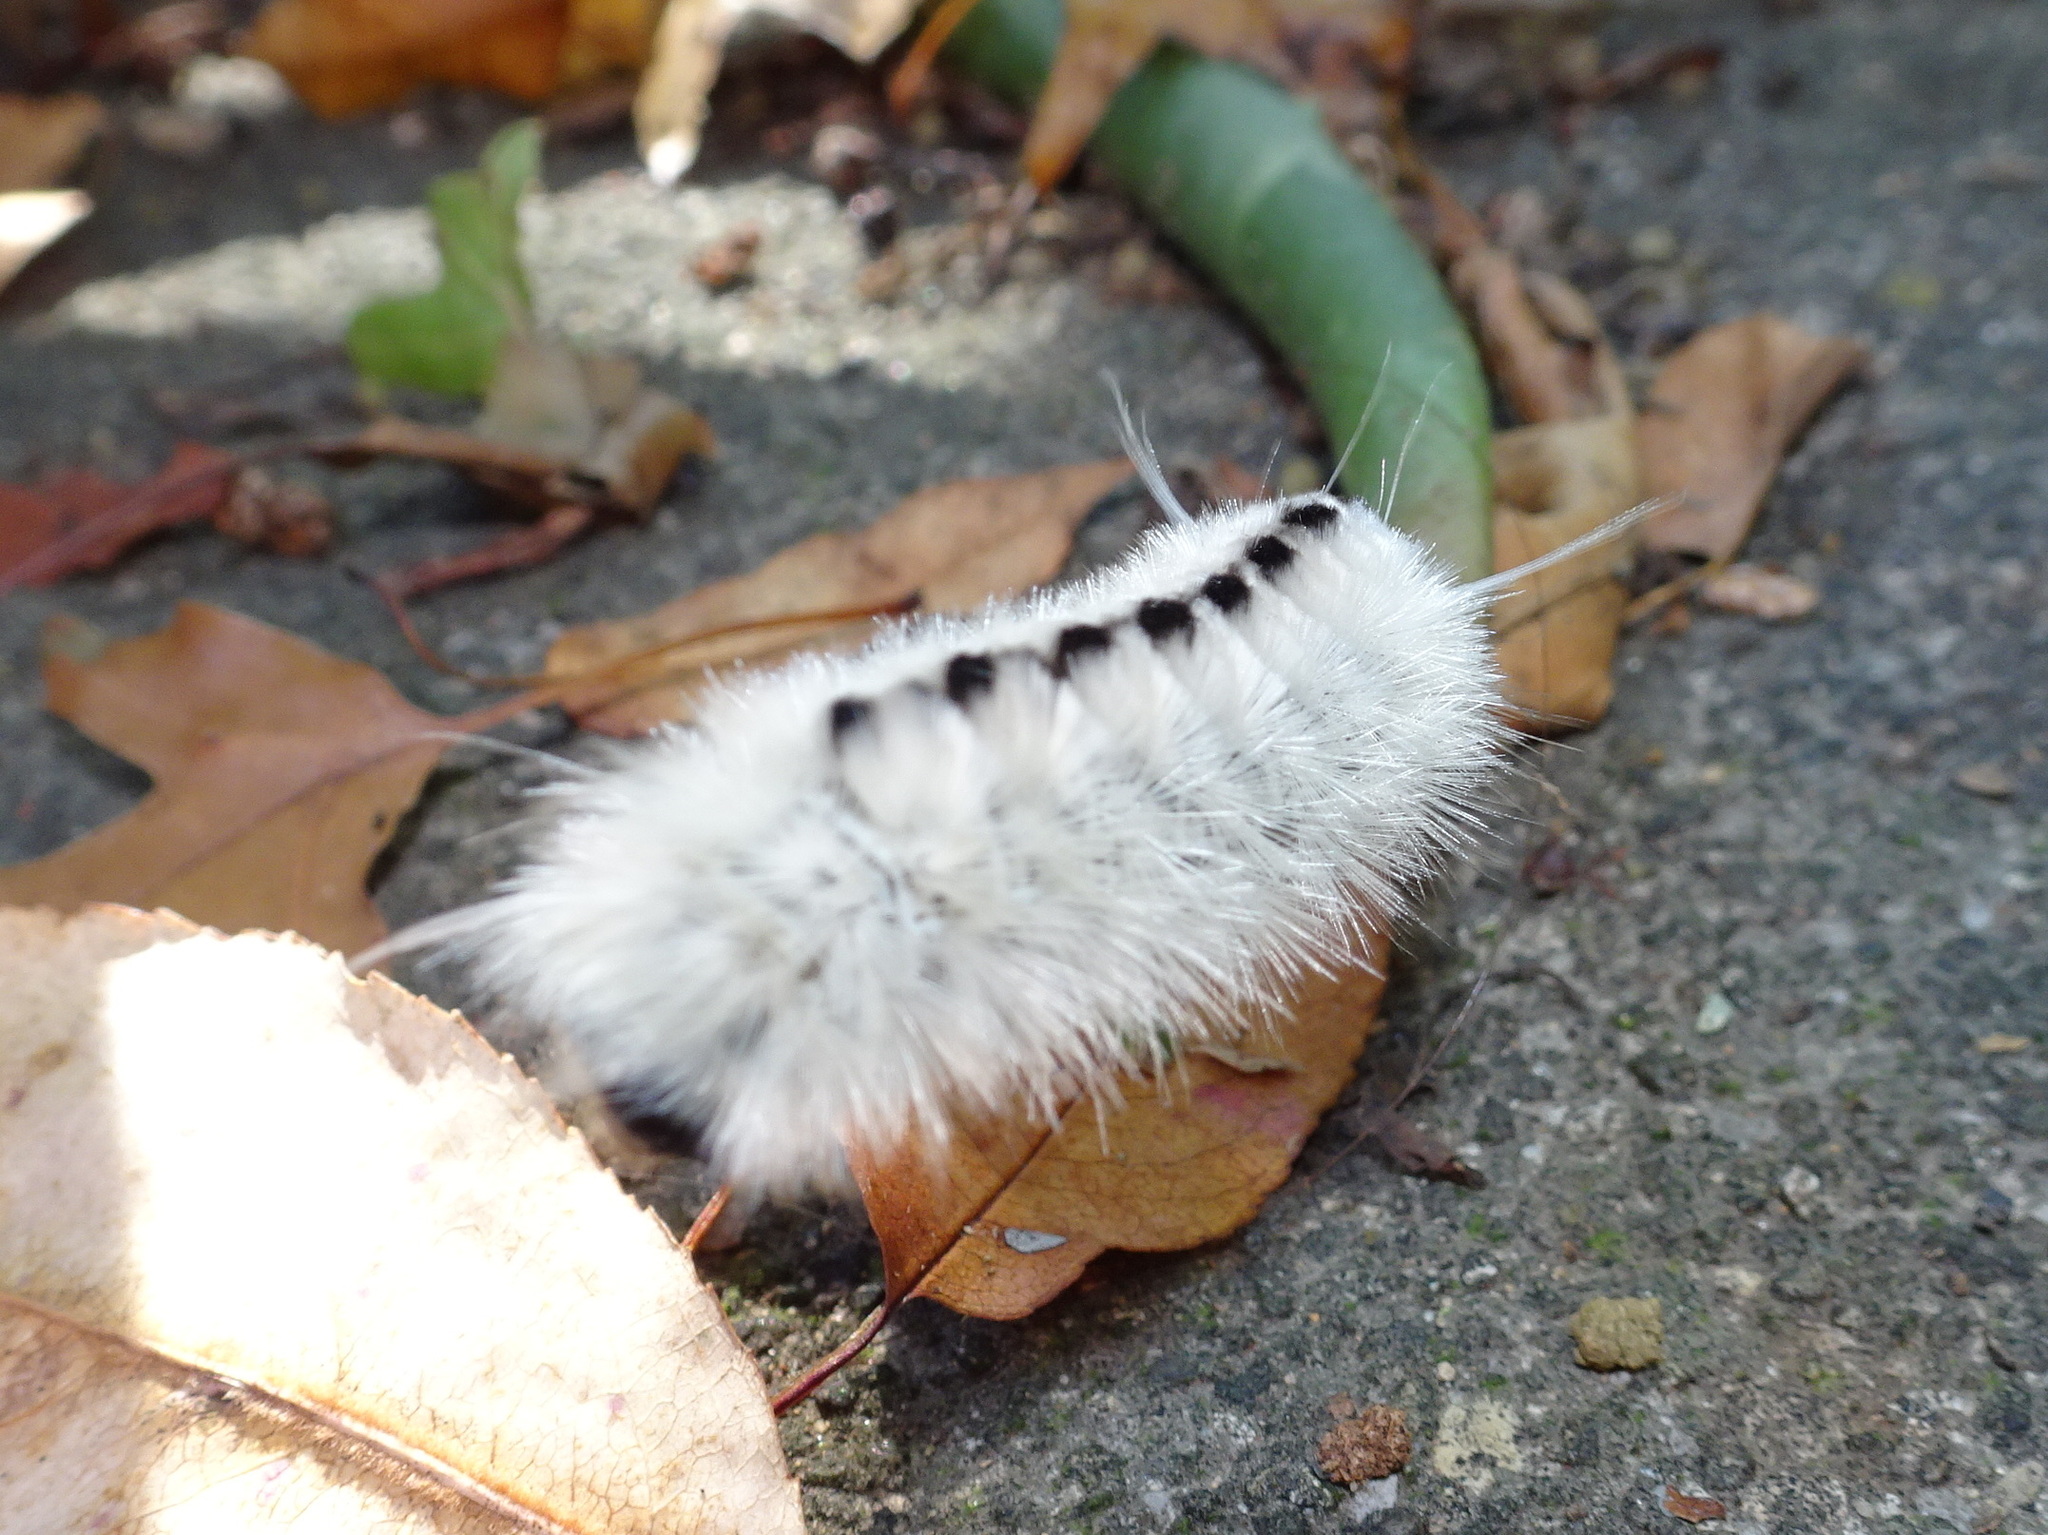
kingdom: Animalia
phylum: Arthropoda
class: Insecta
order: Lepidoptera
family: Erebidae
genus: Lophocampa
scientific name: Lophocampa caryae
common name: Hickory tussock moth
